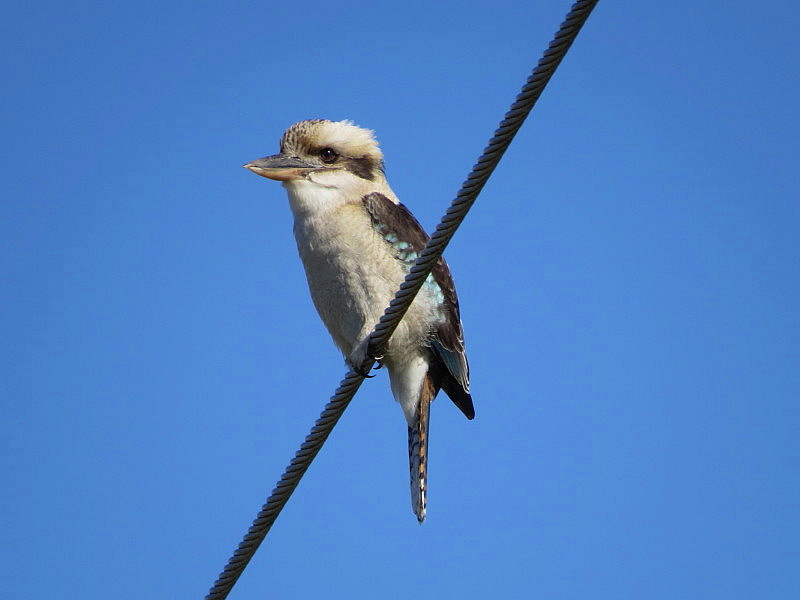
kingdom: Animalia
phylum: Chordata
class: Aves
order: Coraciiformes
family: Alcedinidae
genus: Dacelo
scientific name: Dacelo novaeguineae
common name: Laughing kookaburra
